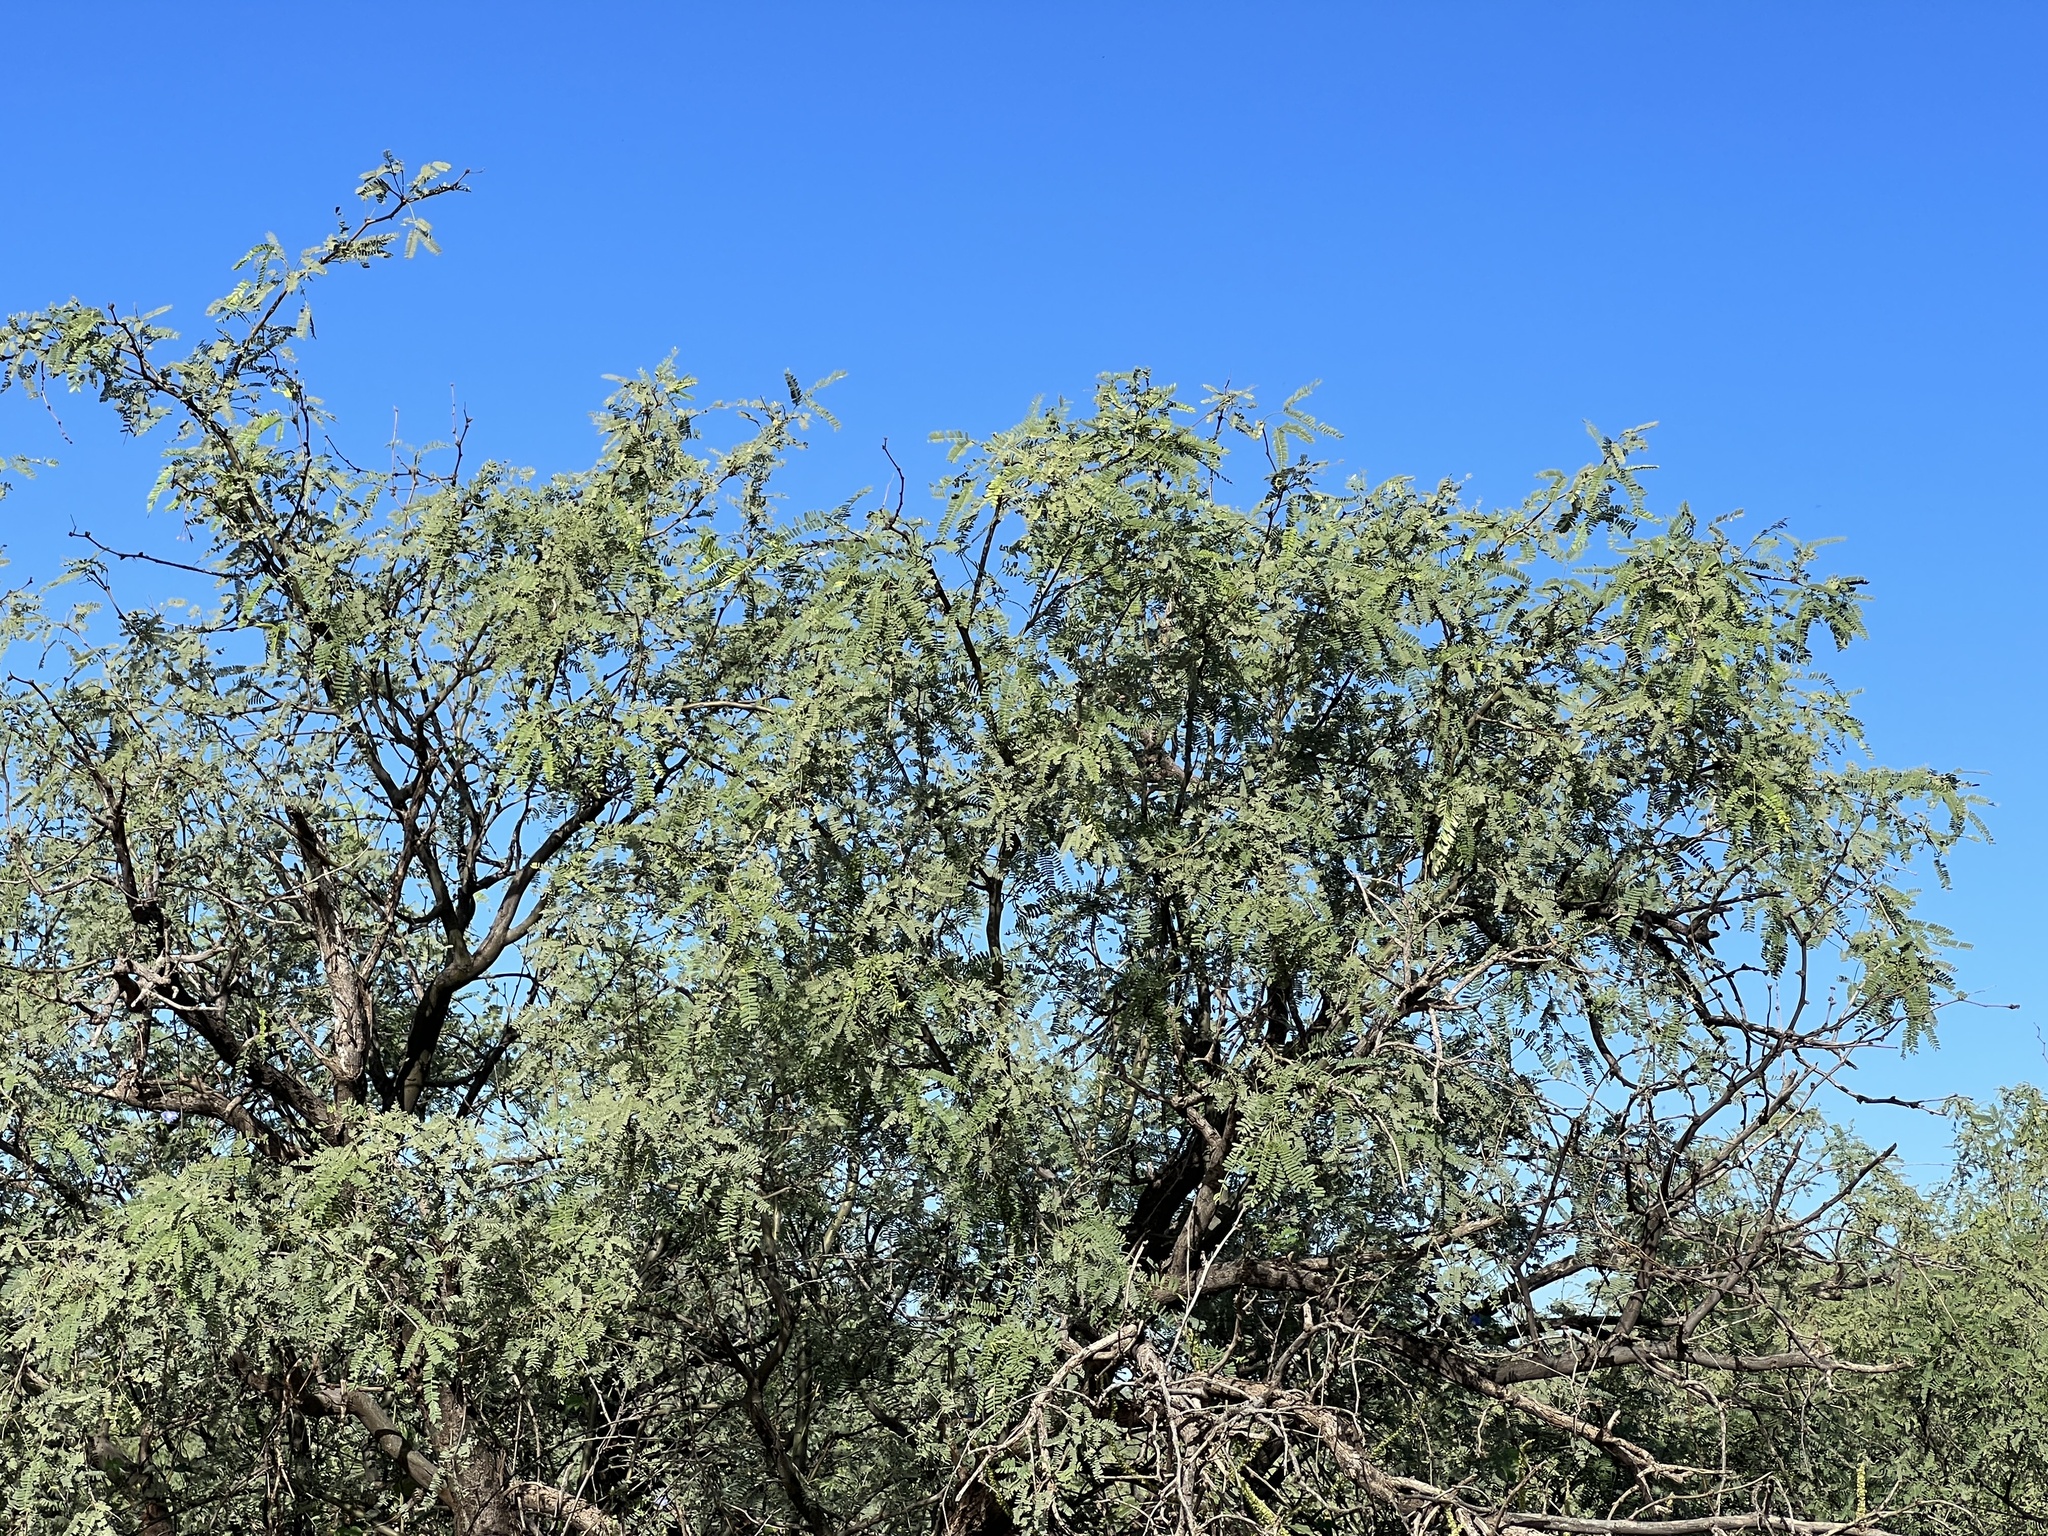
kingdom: Plantae
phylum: Tracheophyta
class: Magnoliopsida
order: Fabales
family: Fabaceae
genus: Prosopis
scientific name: Prosopis velutina
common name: Velvet mesquite
